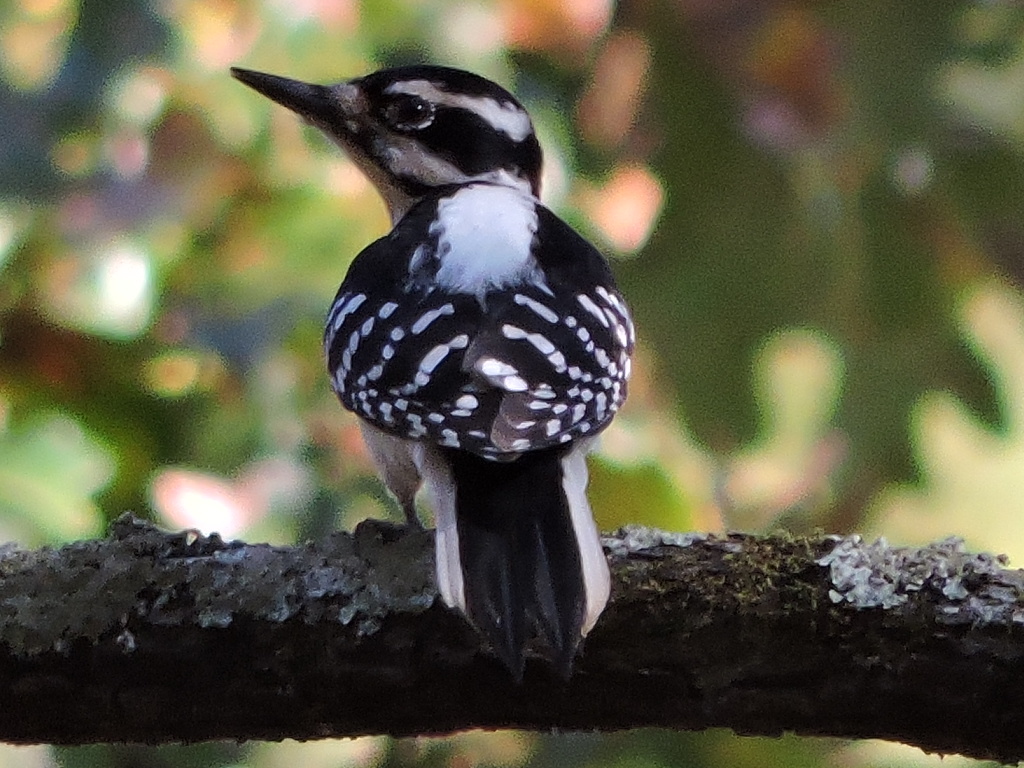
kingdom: Animalia
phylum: Chordata
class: Aves
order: Piciformes
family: Picidae
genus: Leuconotopicus
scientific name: Leuconotopicus villosus
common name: Hairy woodpecker
